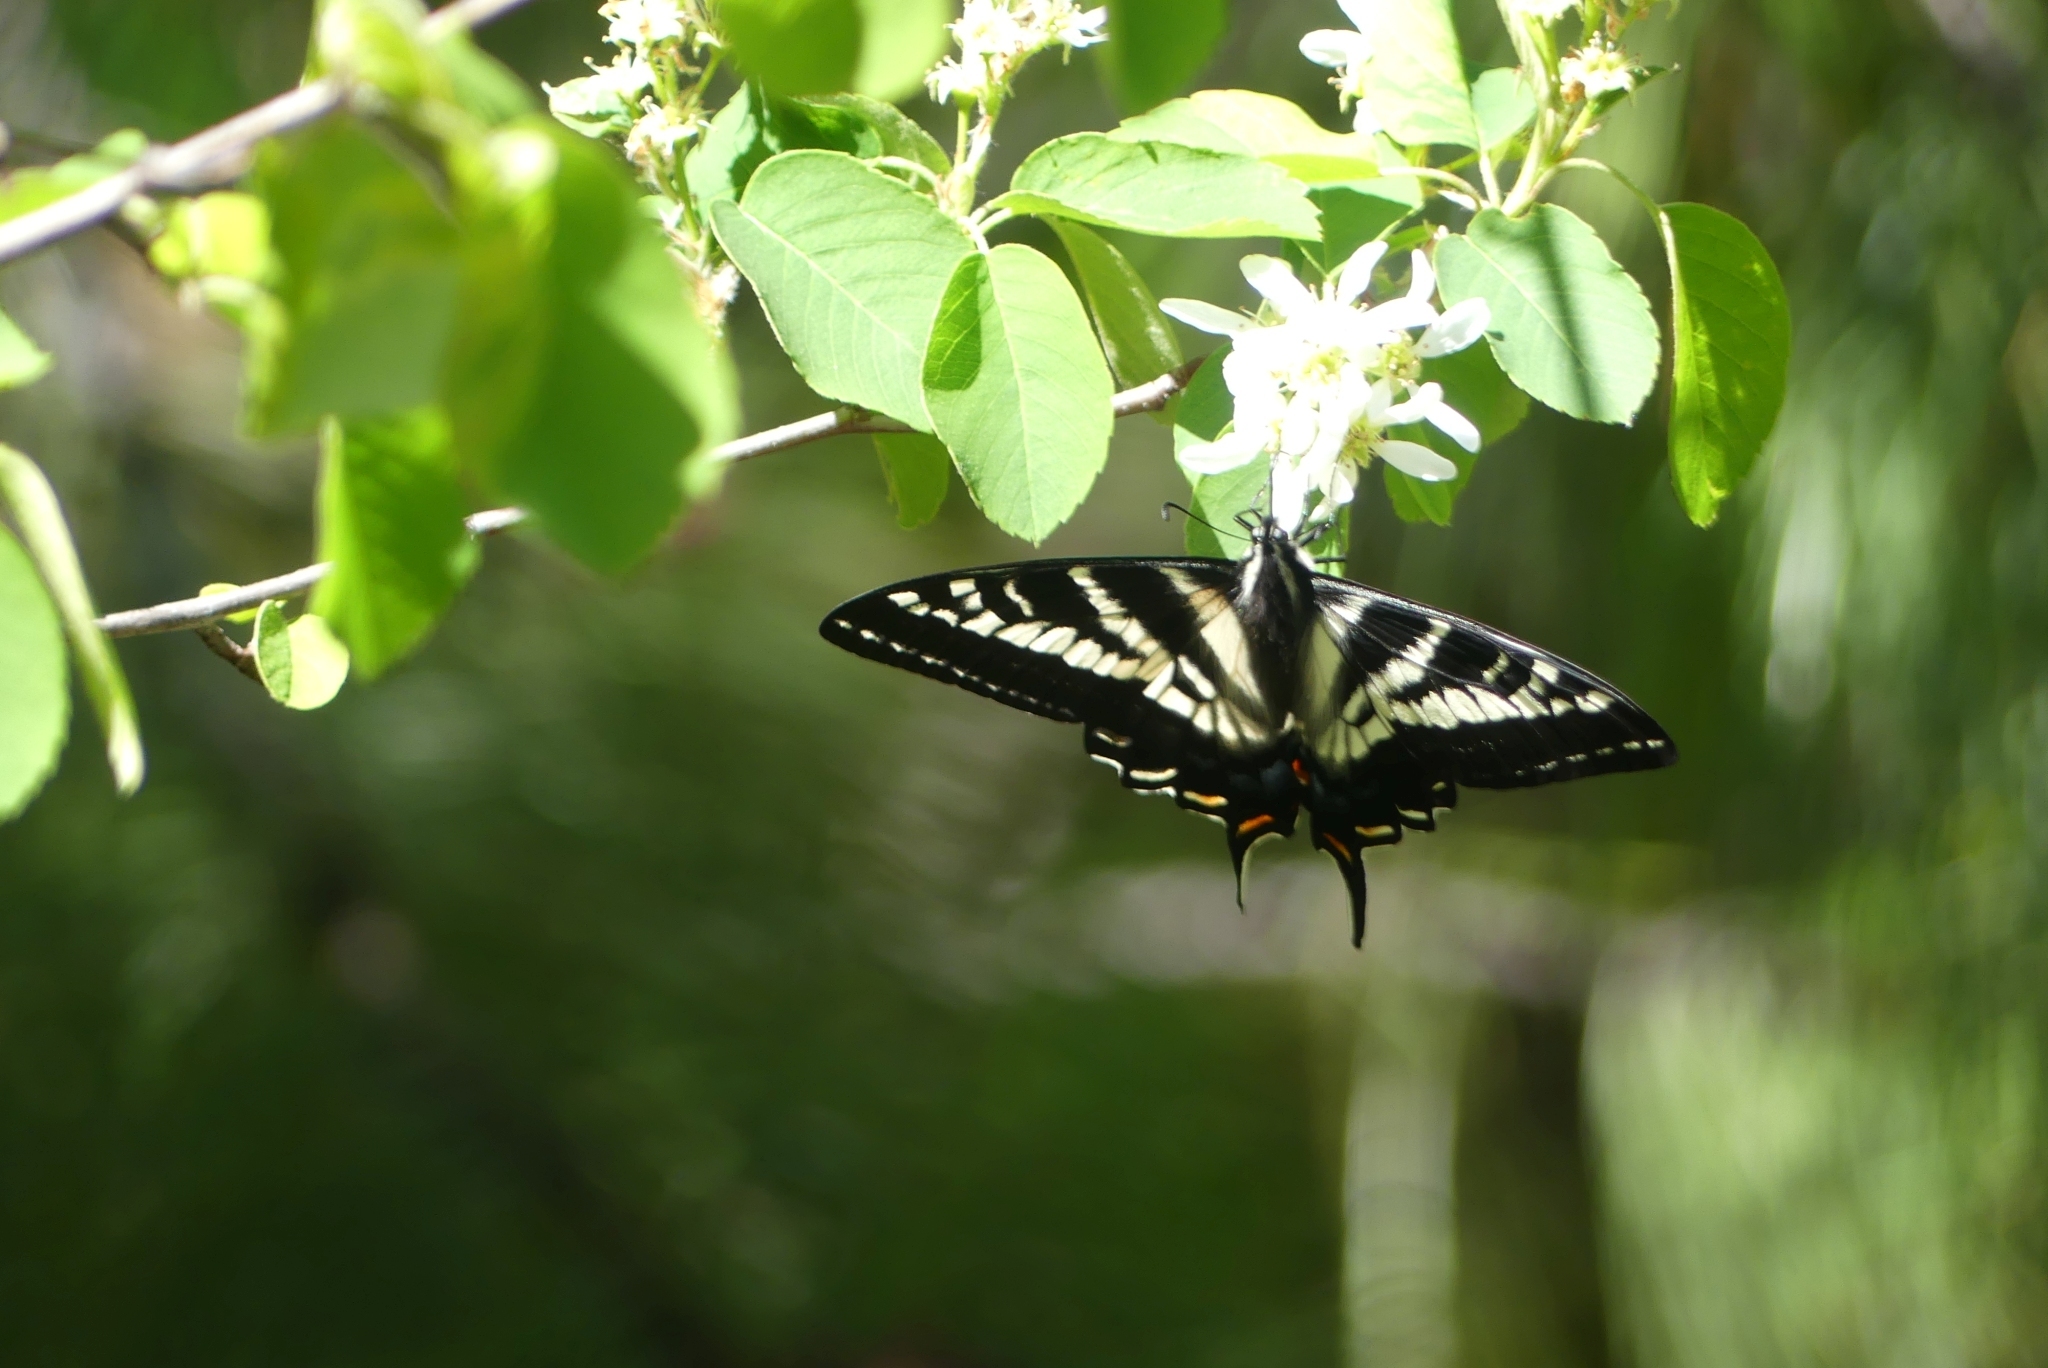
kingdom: Animalia
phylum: Arthropoda
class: Insecta
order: Lepidoptera
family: Papilionidae
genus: Papilio
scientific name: Papilio eurymedon
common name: Pale tiger swallowtail
